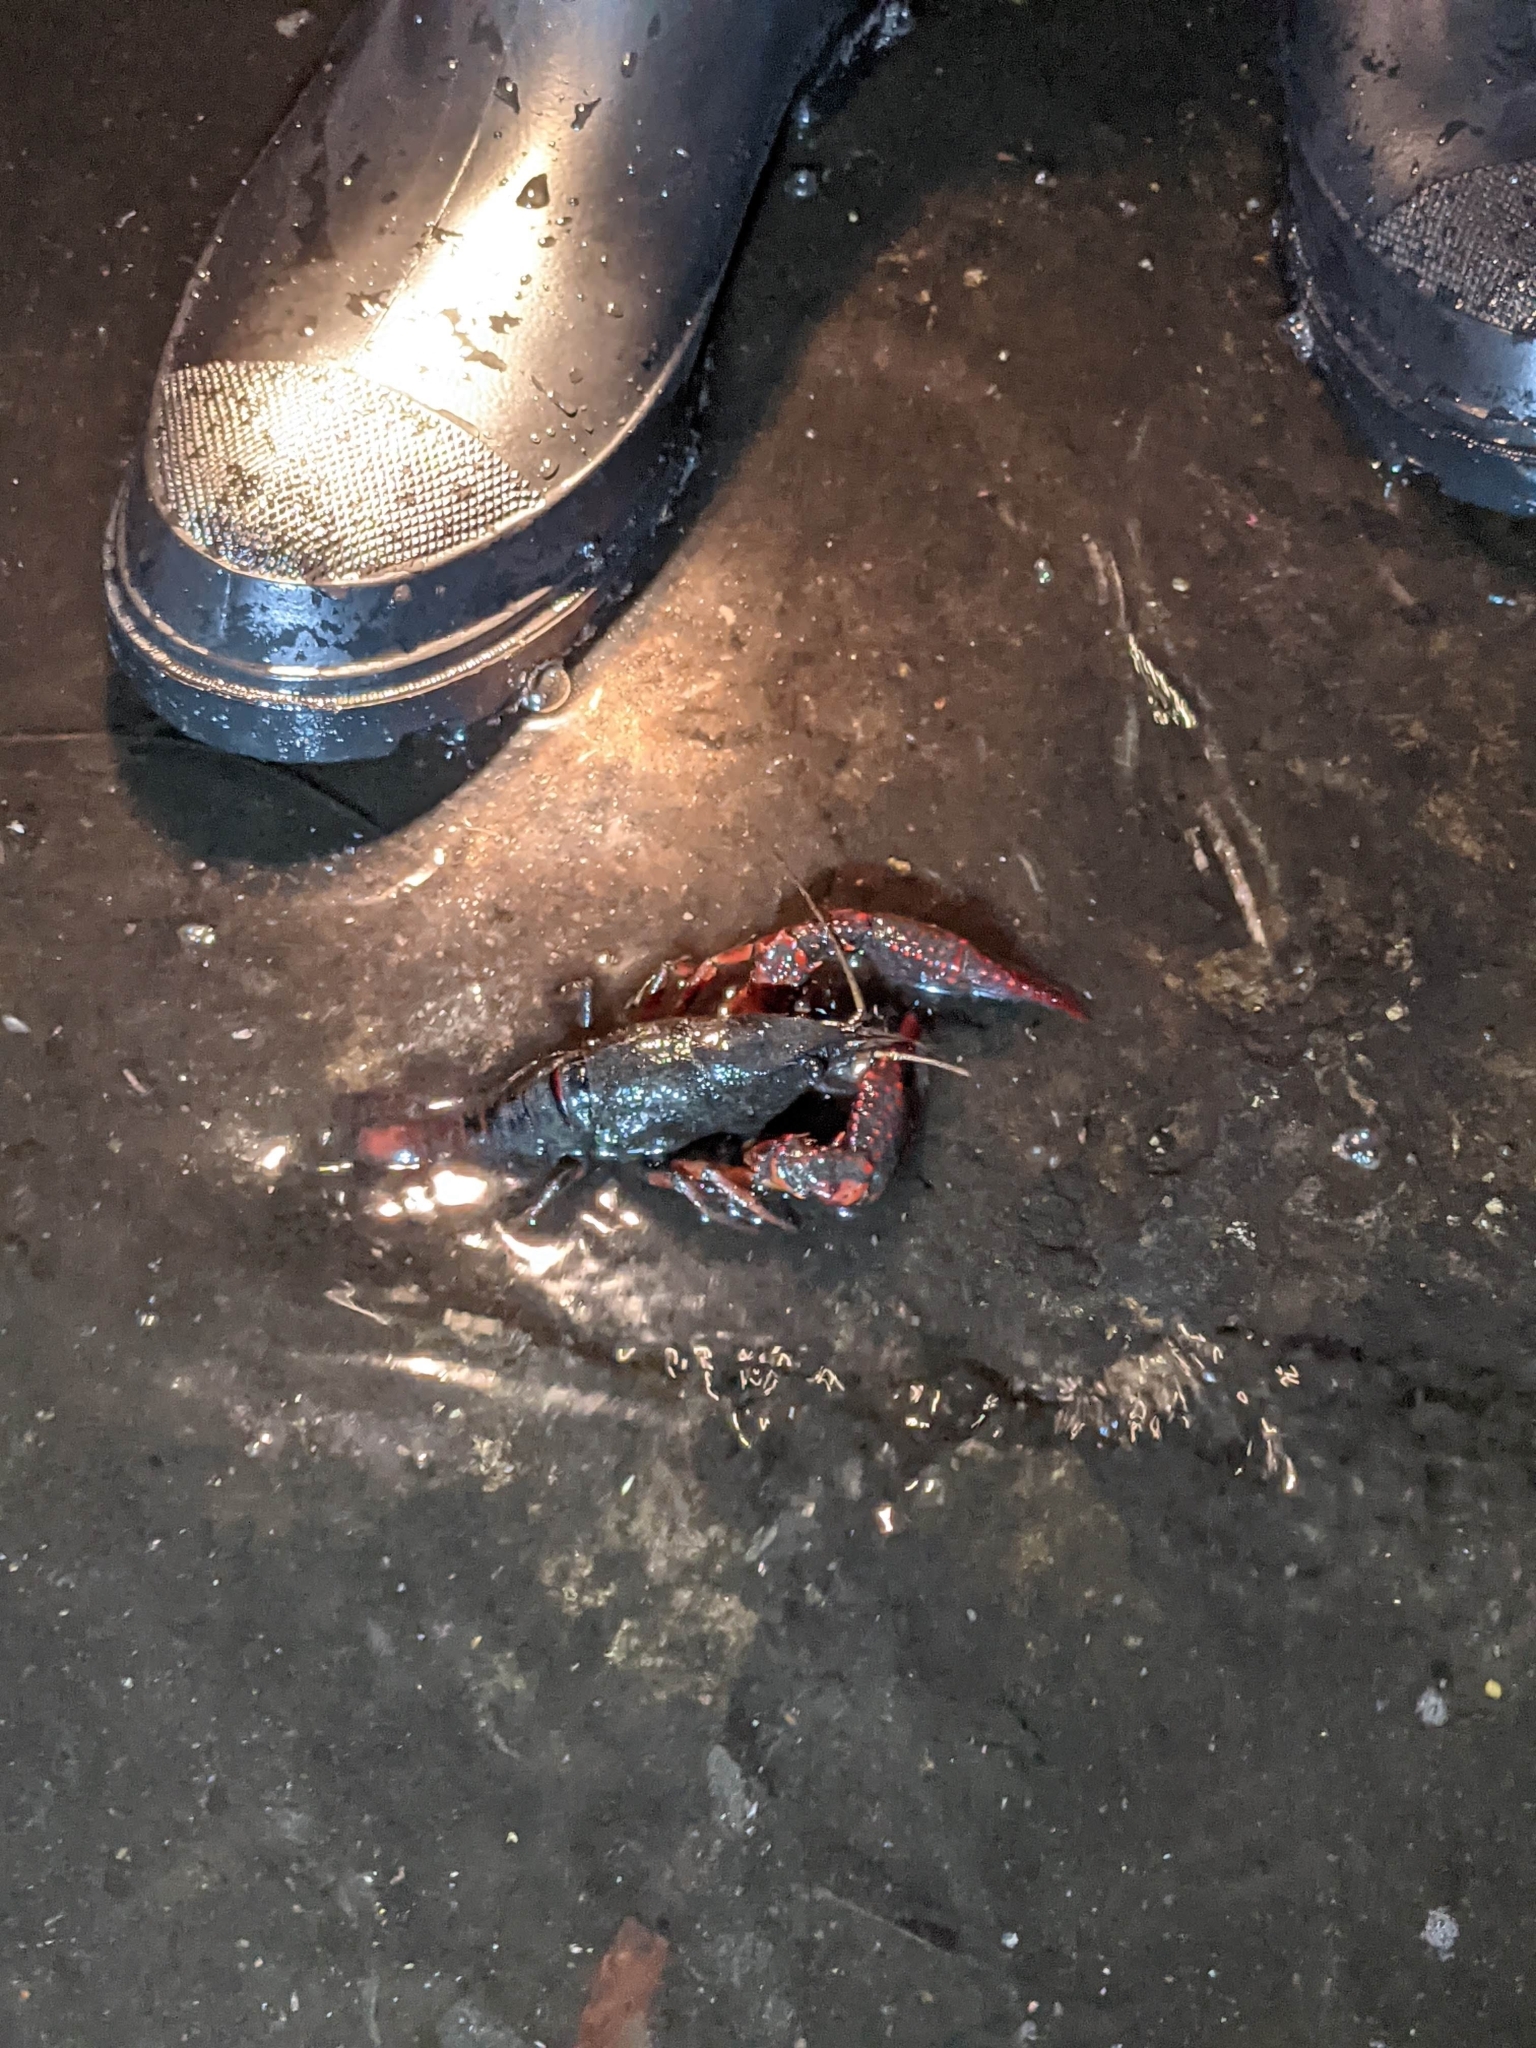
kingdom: Animalia
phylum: Arthropoda
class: Malacostraca
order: Decapoda
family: Cambaridae
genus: Procambarus
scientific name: Procambarus clarkii
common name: Red swamp crayfish
